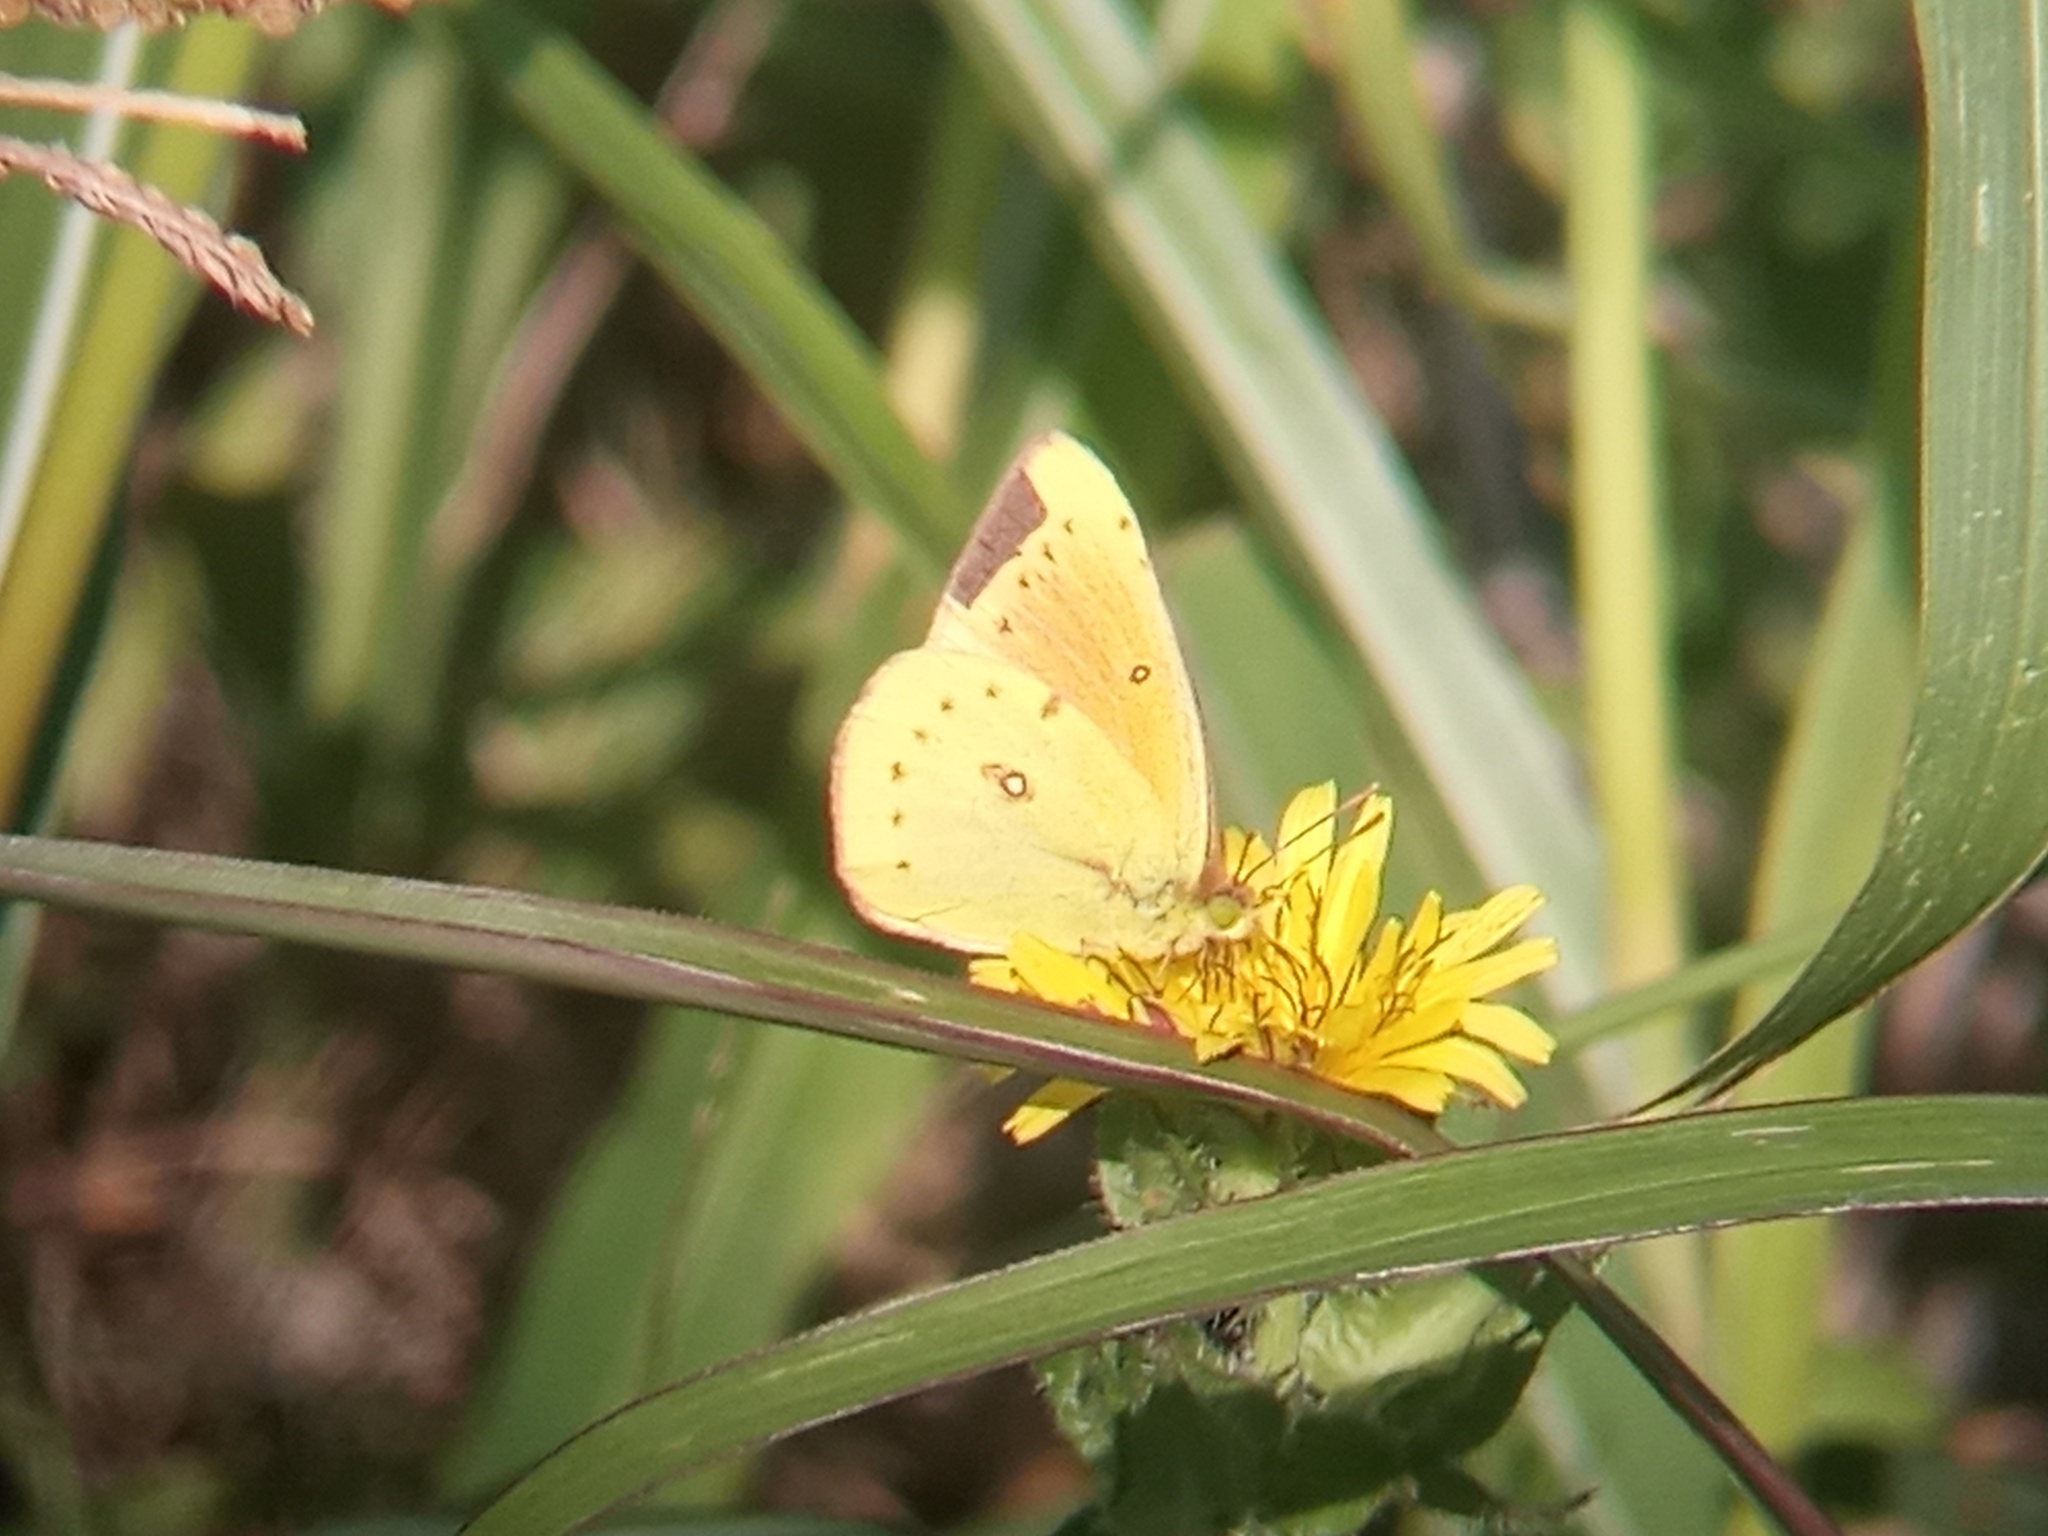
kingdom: Animalia
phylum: Arthropoda
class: Insecta
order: Lepidoptera
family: Pieridae
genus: Colias
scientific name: Colias lesbia
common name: Lesbia clouded yellow
